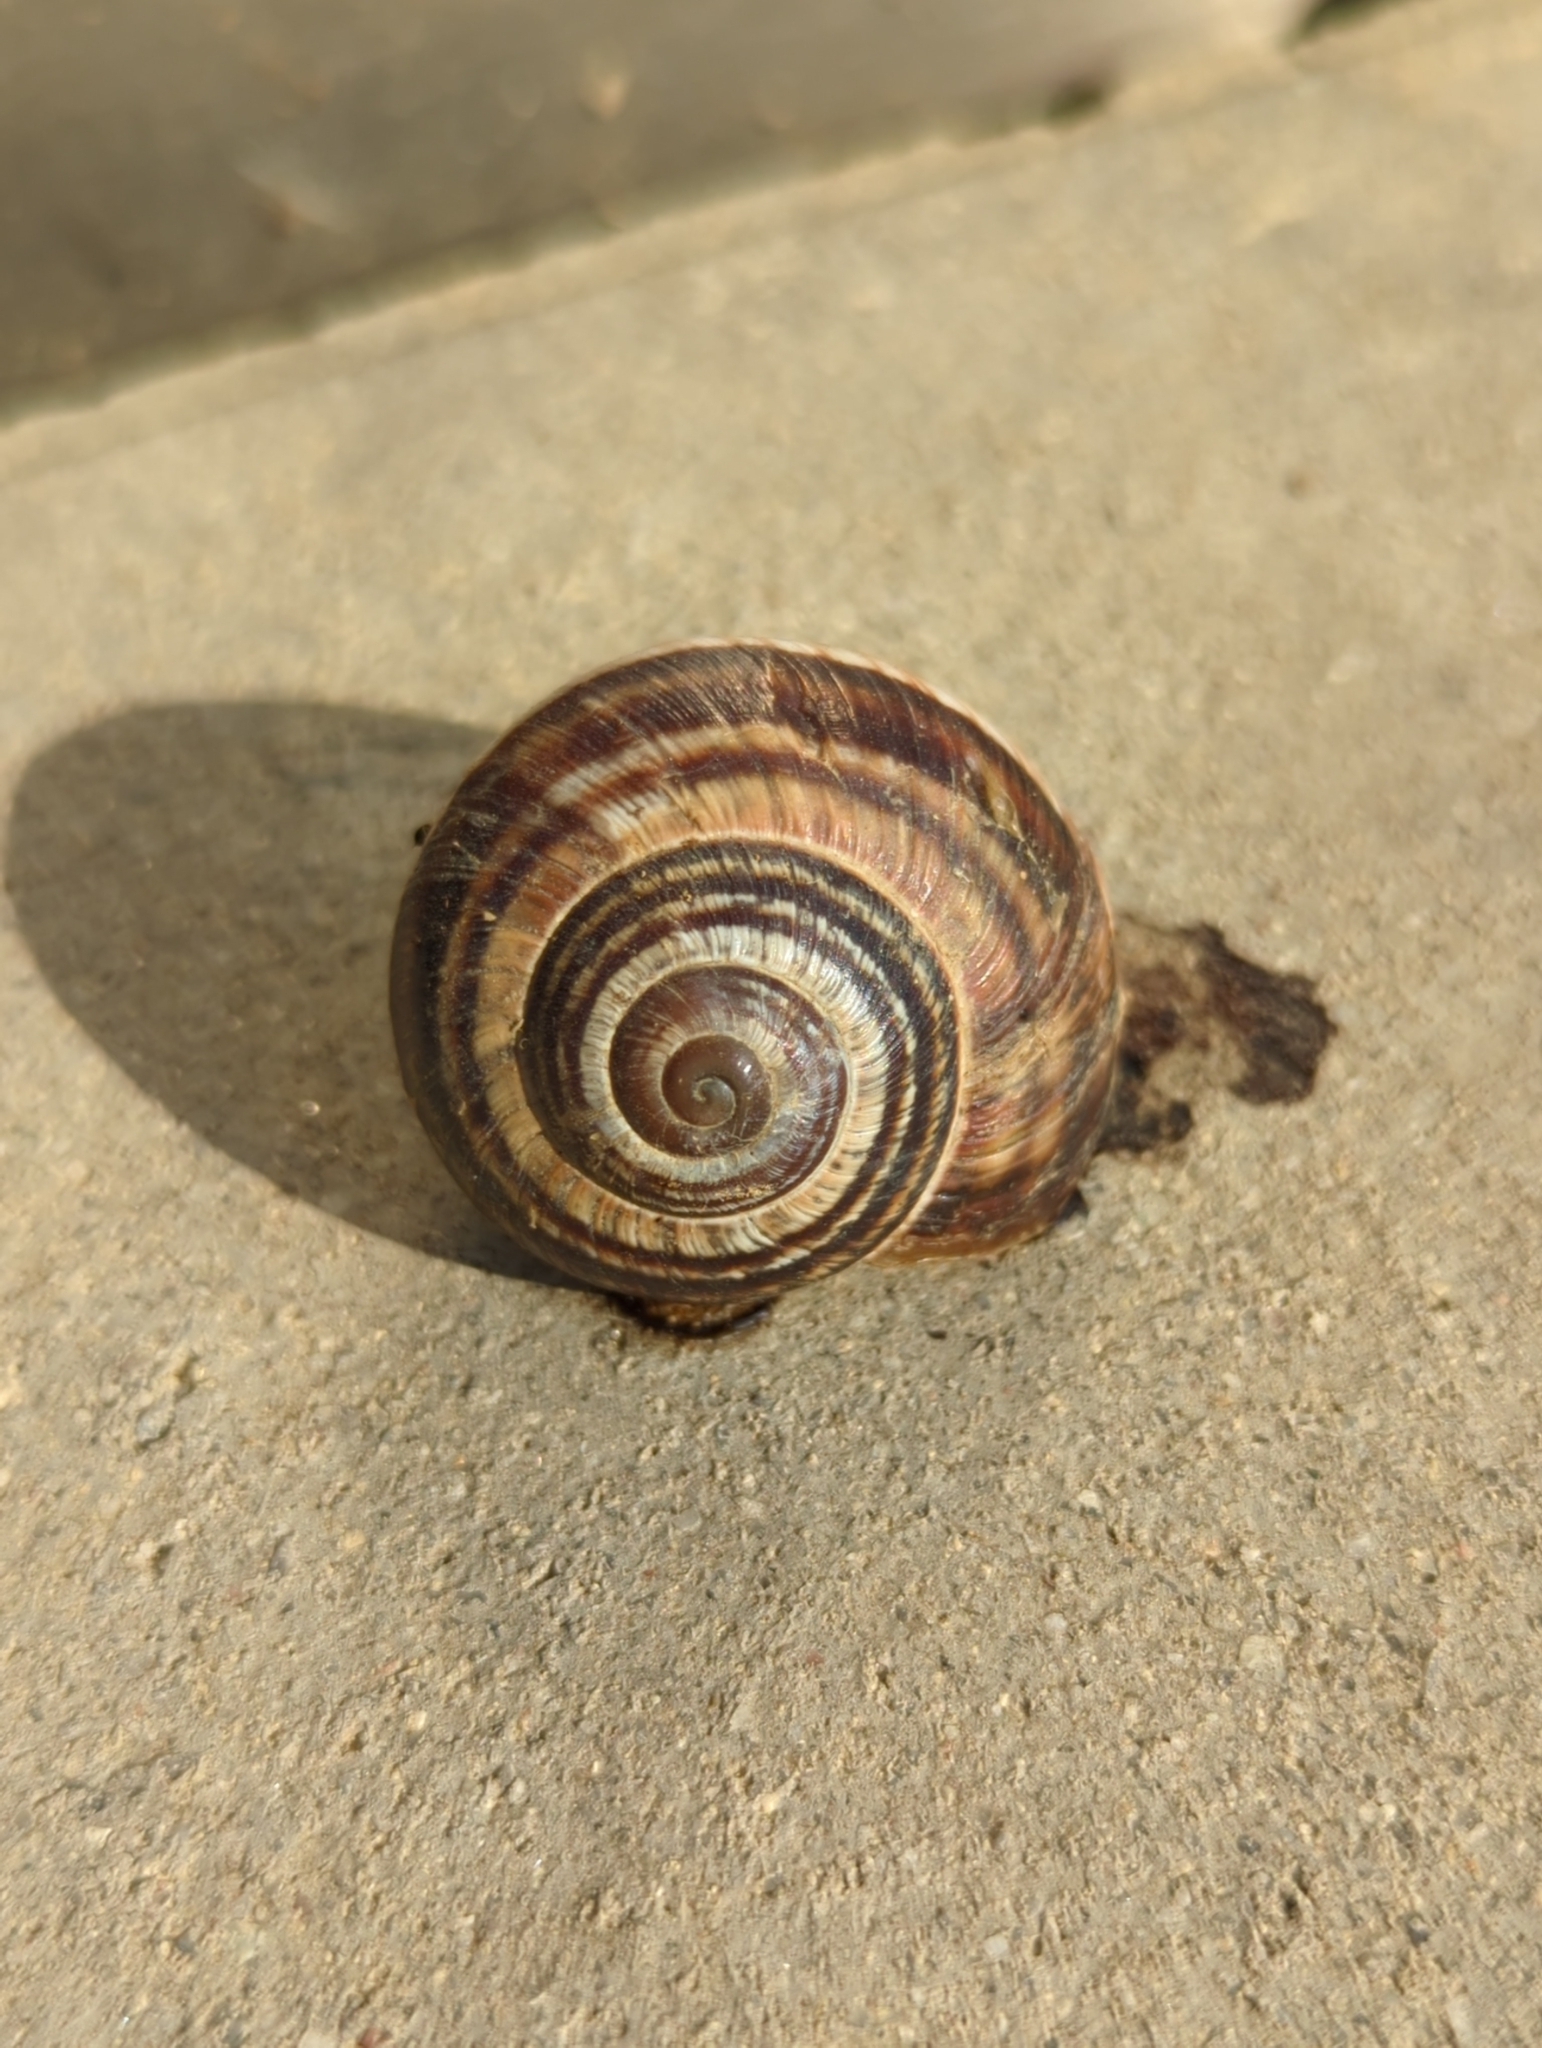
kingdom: Animalia
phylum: Mollusca
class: Gastropoda
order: Stylommatophora
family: Helicidae
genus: Helix
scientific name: Helix lucorum
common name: Turkish snail
